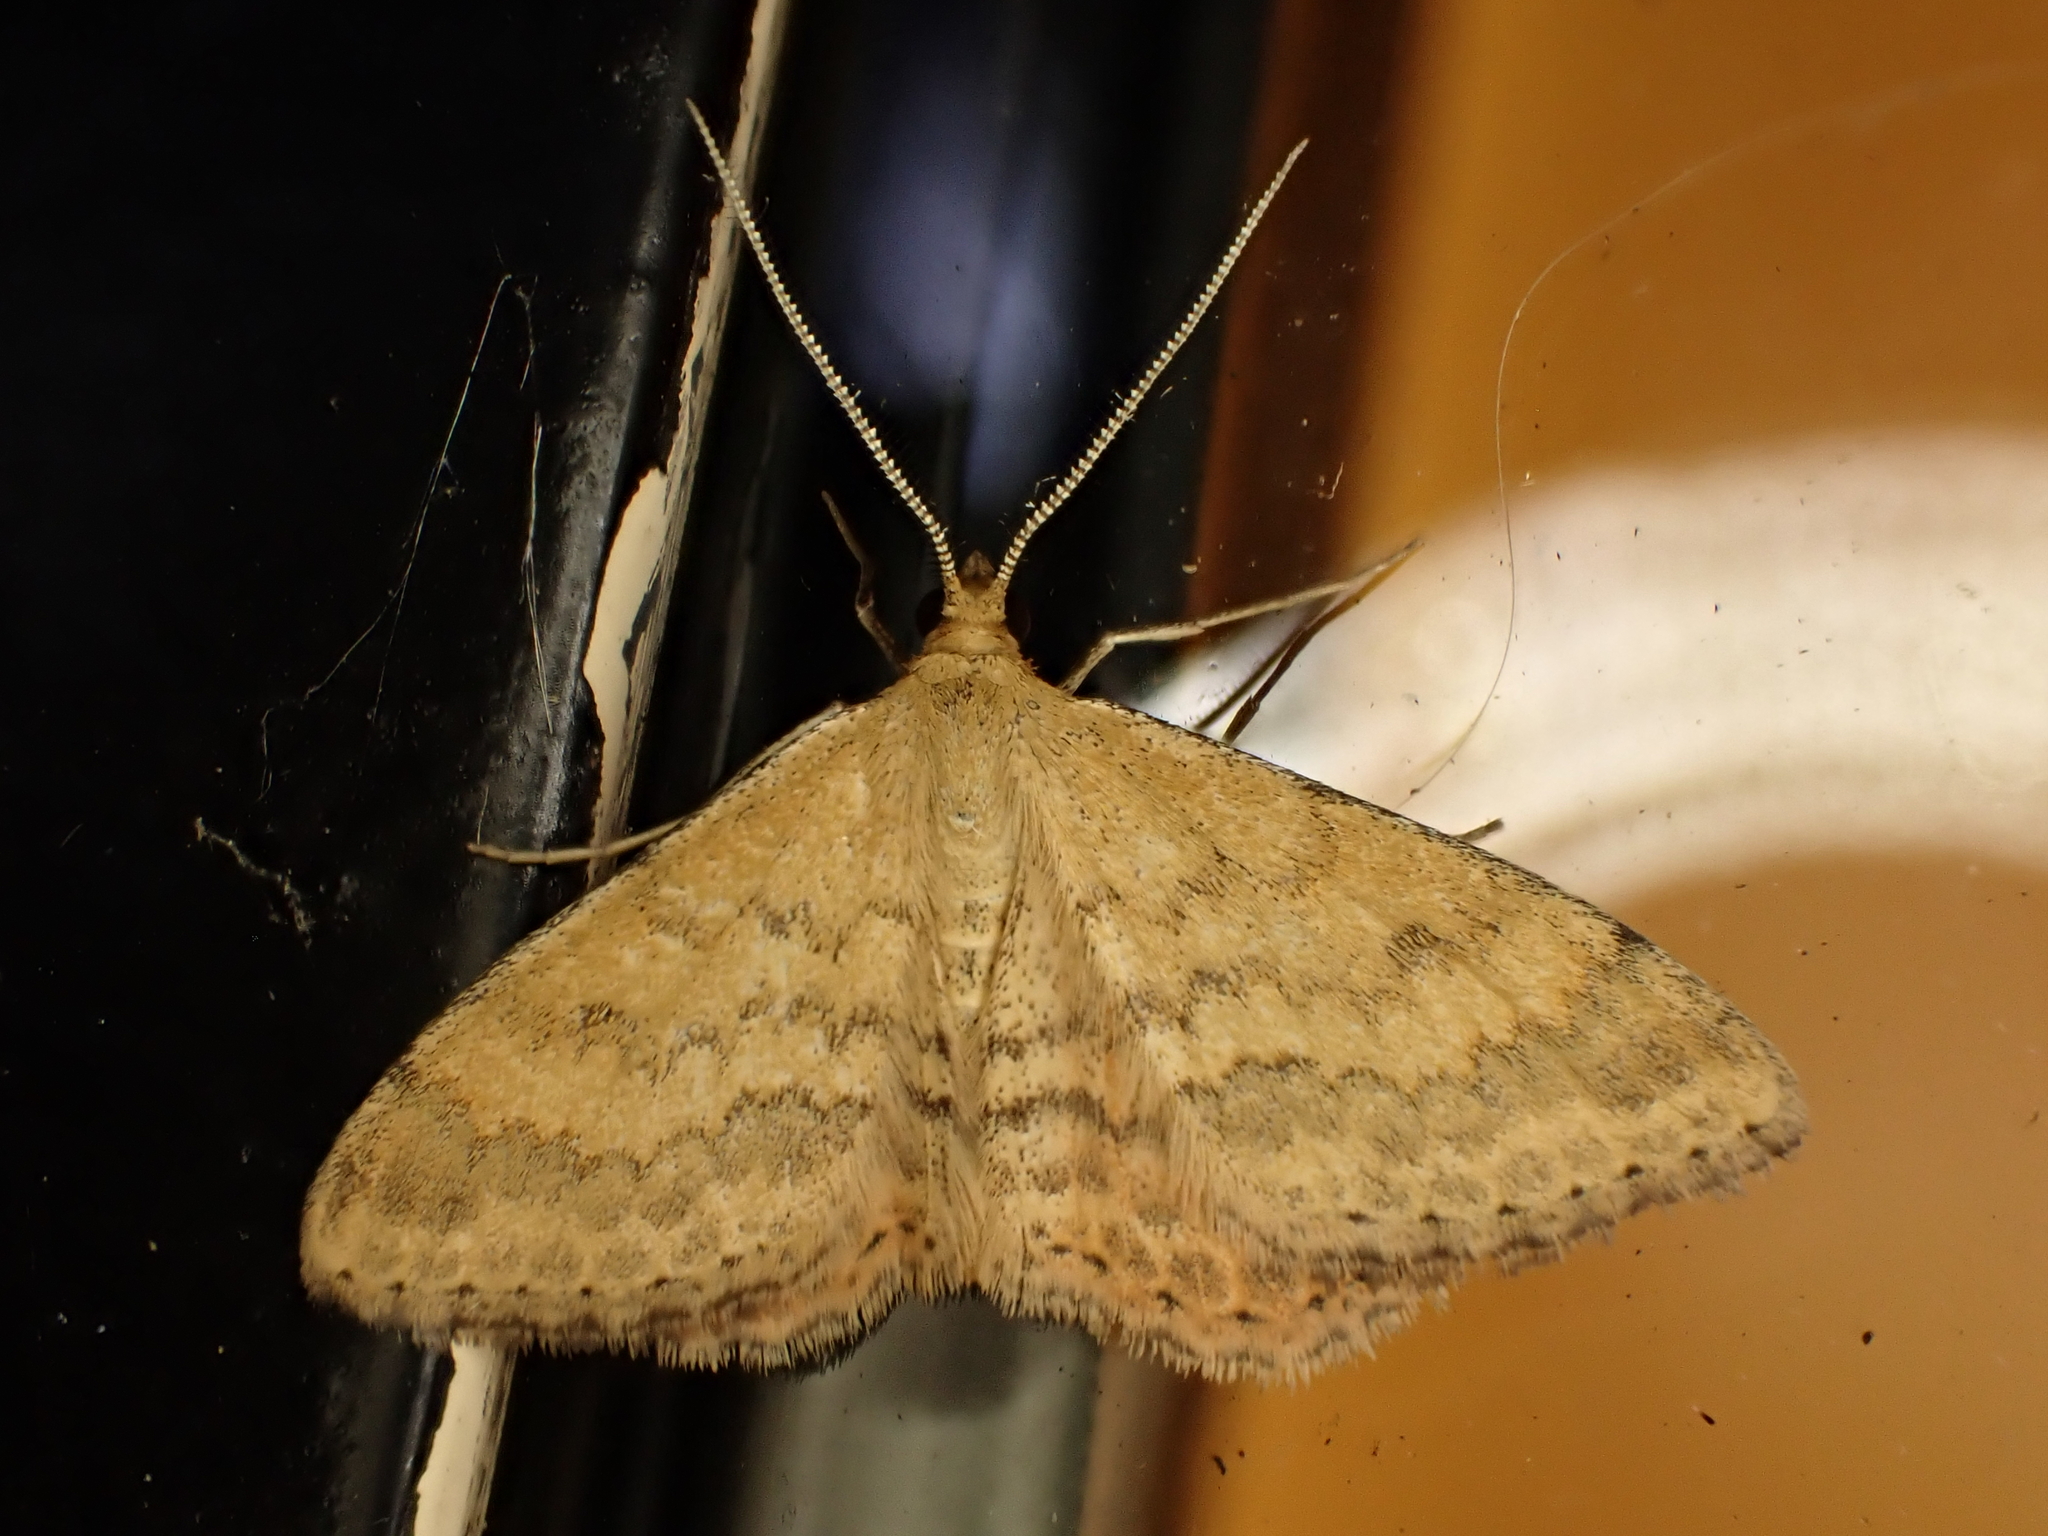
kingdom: Animalia
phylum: Arthropoda
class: Insecta
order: Lepidoptera
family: Geometridae
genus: Scopula
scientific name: Scopula rubraria
